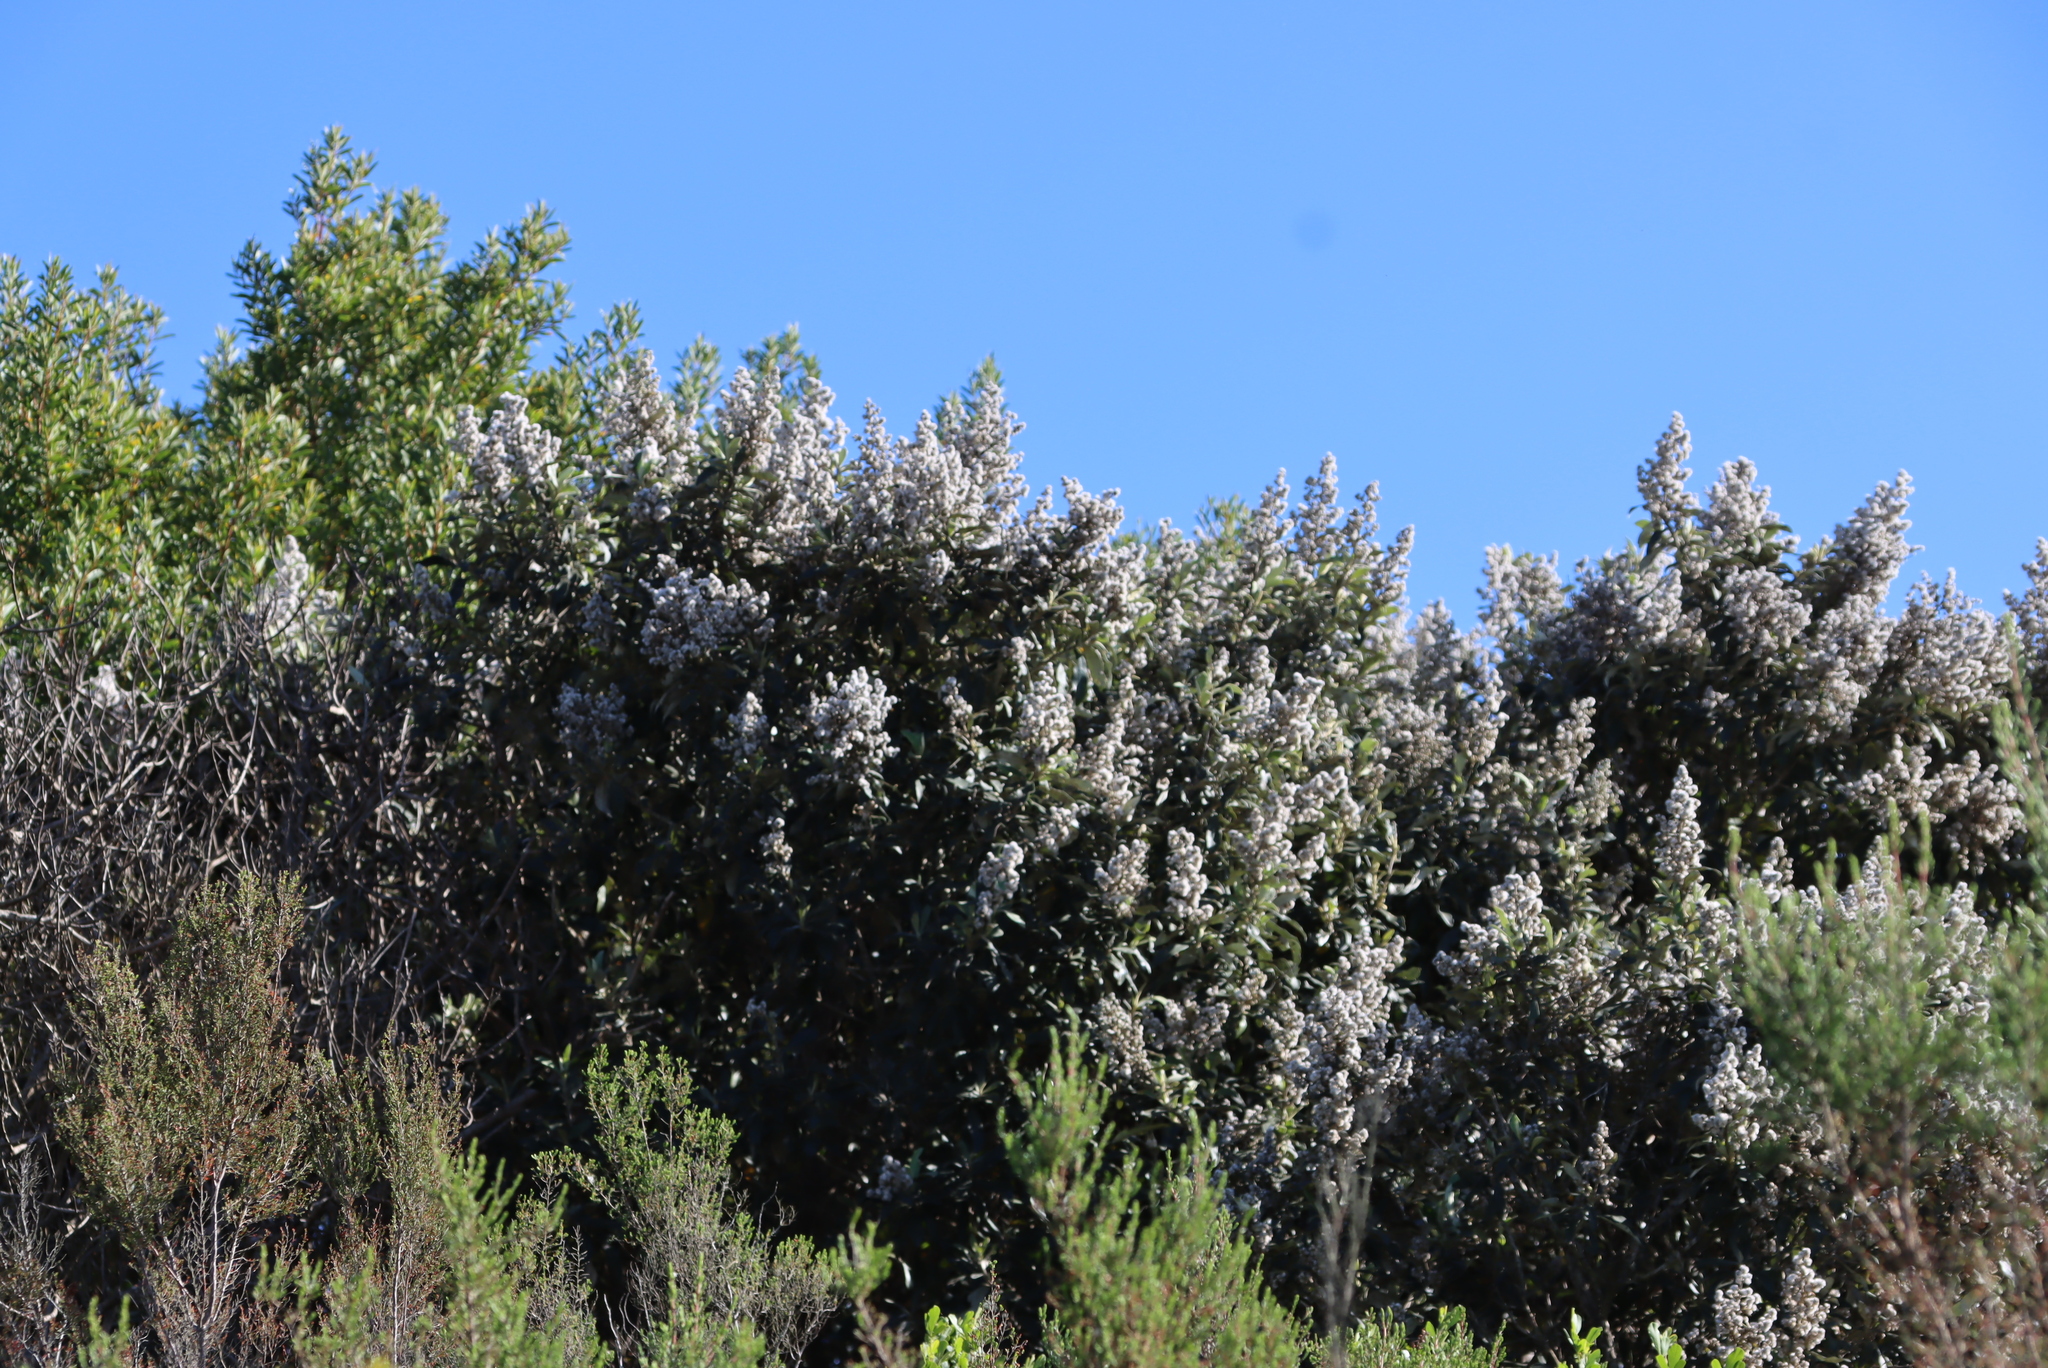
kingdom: Plantae
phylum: Tracheophyta
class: Magnoliopsida
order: Asterales
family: Asteraceae
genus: Tarchonanthus
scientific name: Tarchonanthus littoralis
